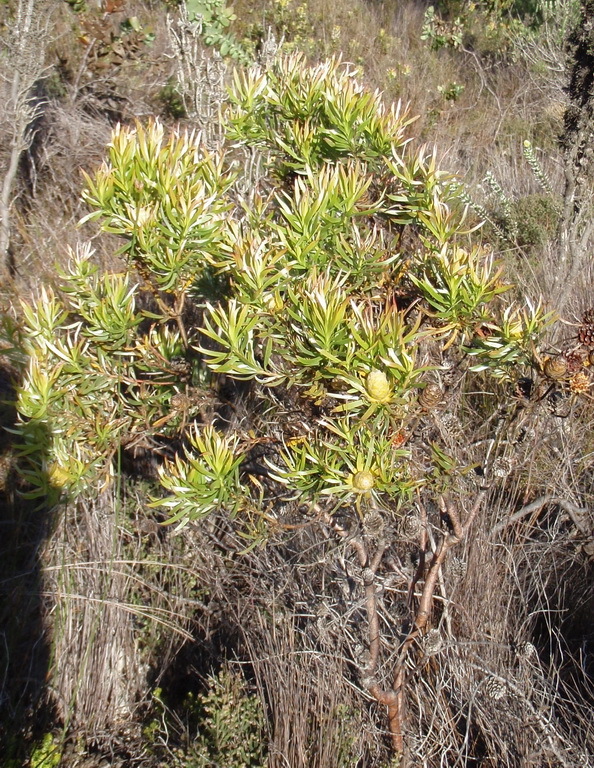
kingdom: Plantae
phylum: Tracheophyta
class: Magnoliopsida
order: Proteales
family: Proteaceae
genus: Leucadendron
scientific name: Leucadendron xanthoconus
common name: Sickle-leaf conebush
